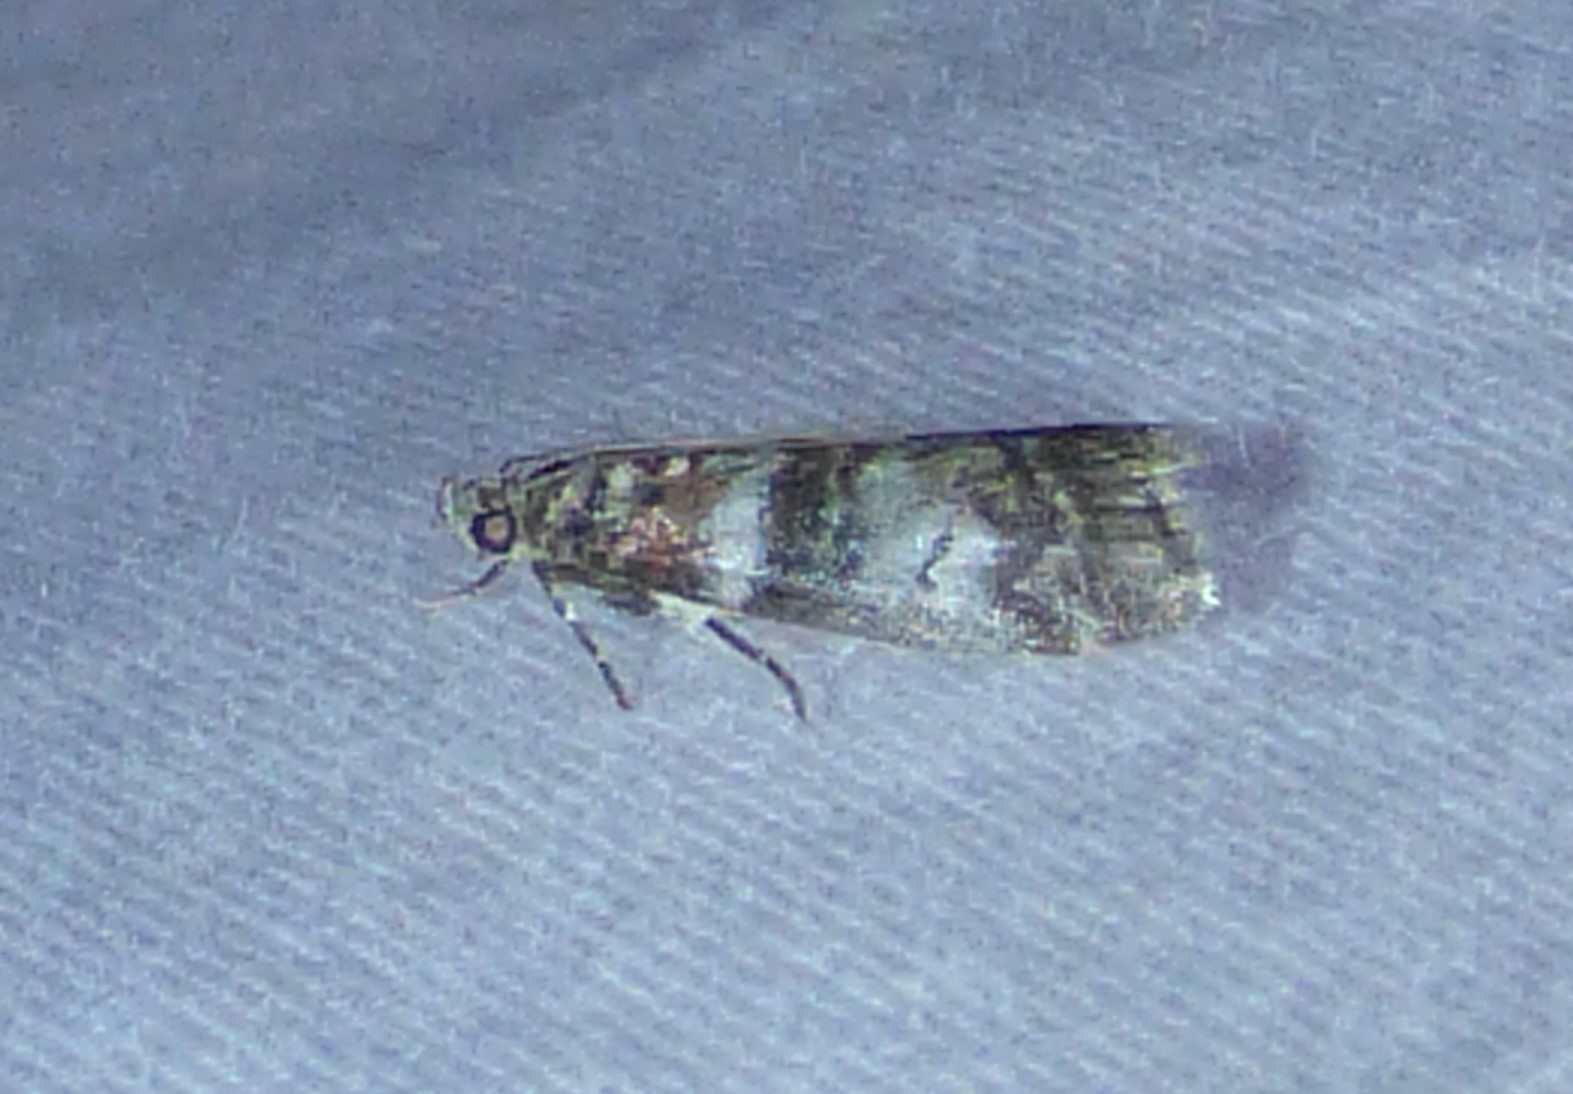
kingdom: Animalia
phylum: Arthropoda
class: Insecta
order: Lepidoptera
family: Pyralidae
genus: Sciota
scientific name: Sciota uvinella
